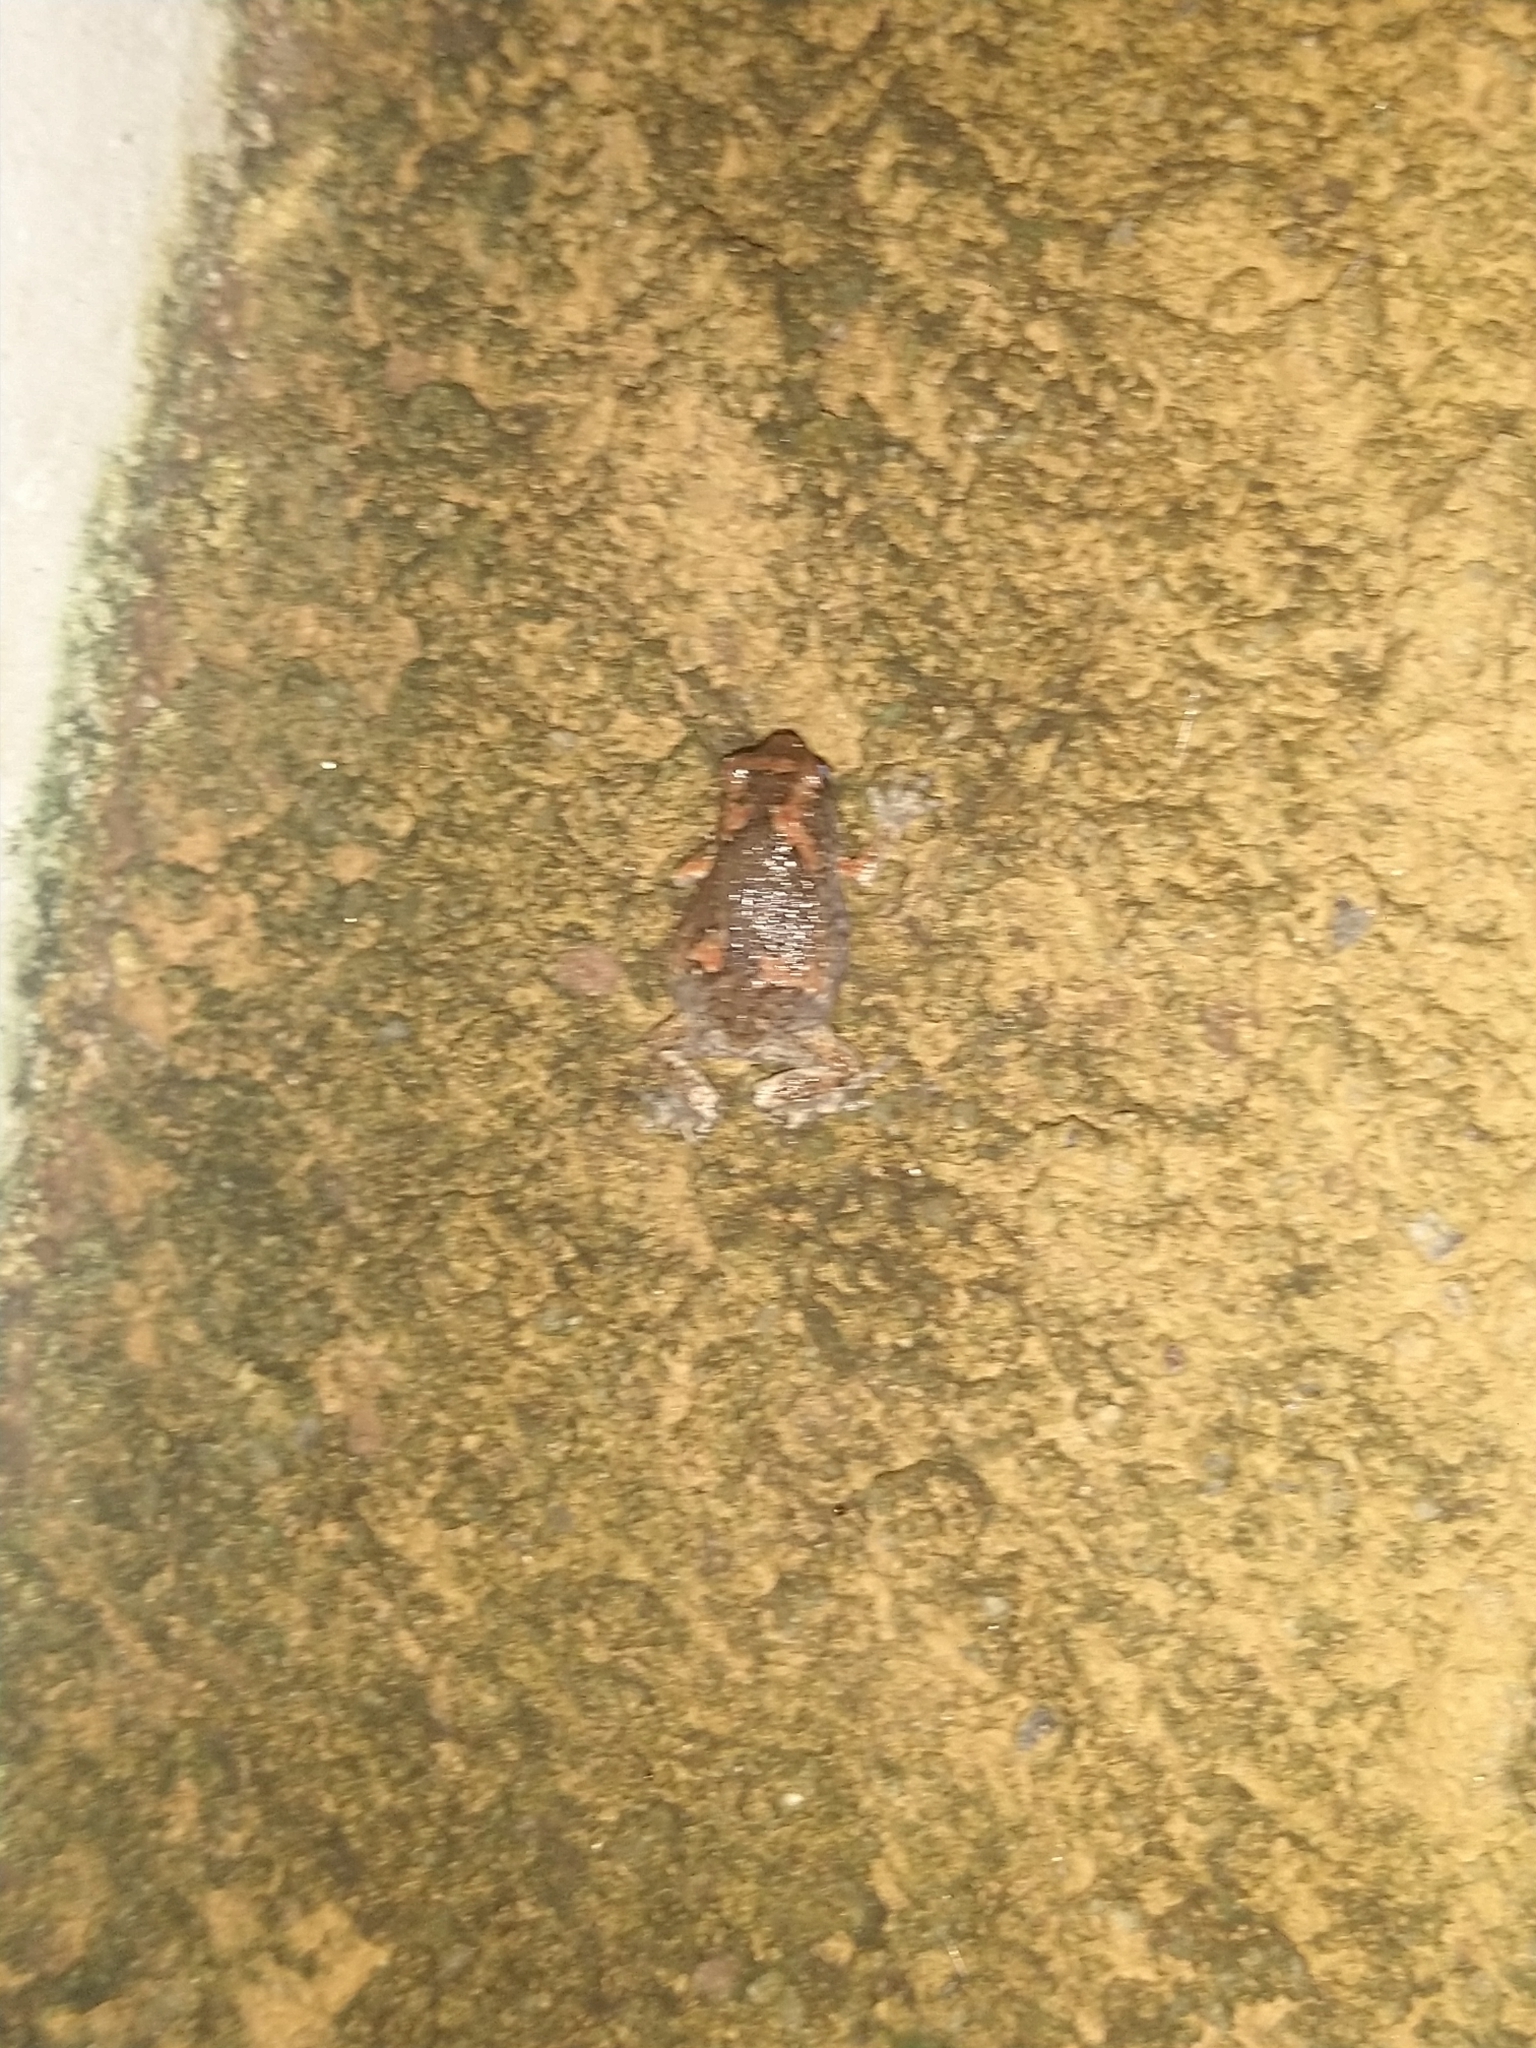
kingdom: Animalia
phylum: Chordata
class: Amphibia
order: Anura
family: Microhylidae
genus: Uperodon
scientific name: Uperodon taprobanicus
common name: Ceylon kaloula
